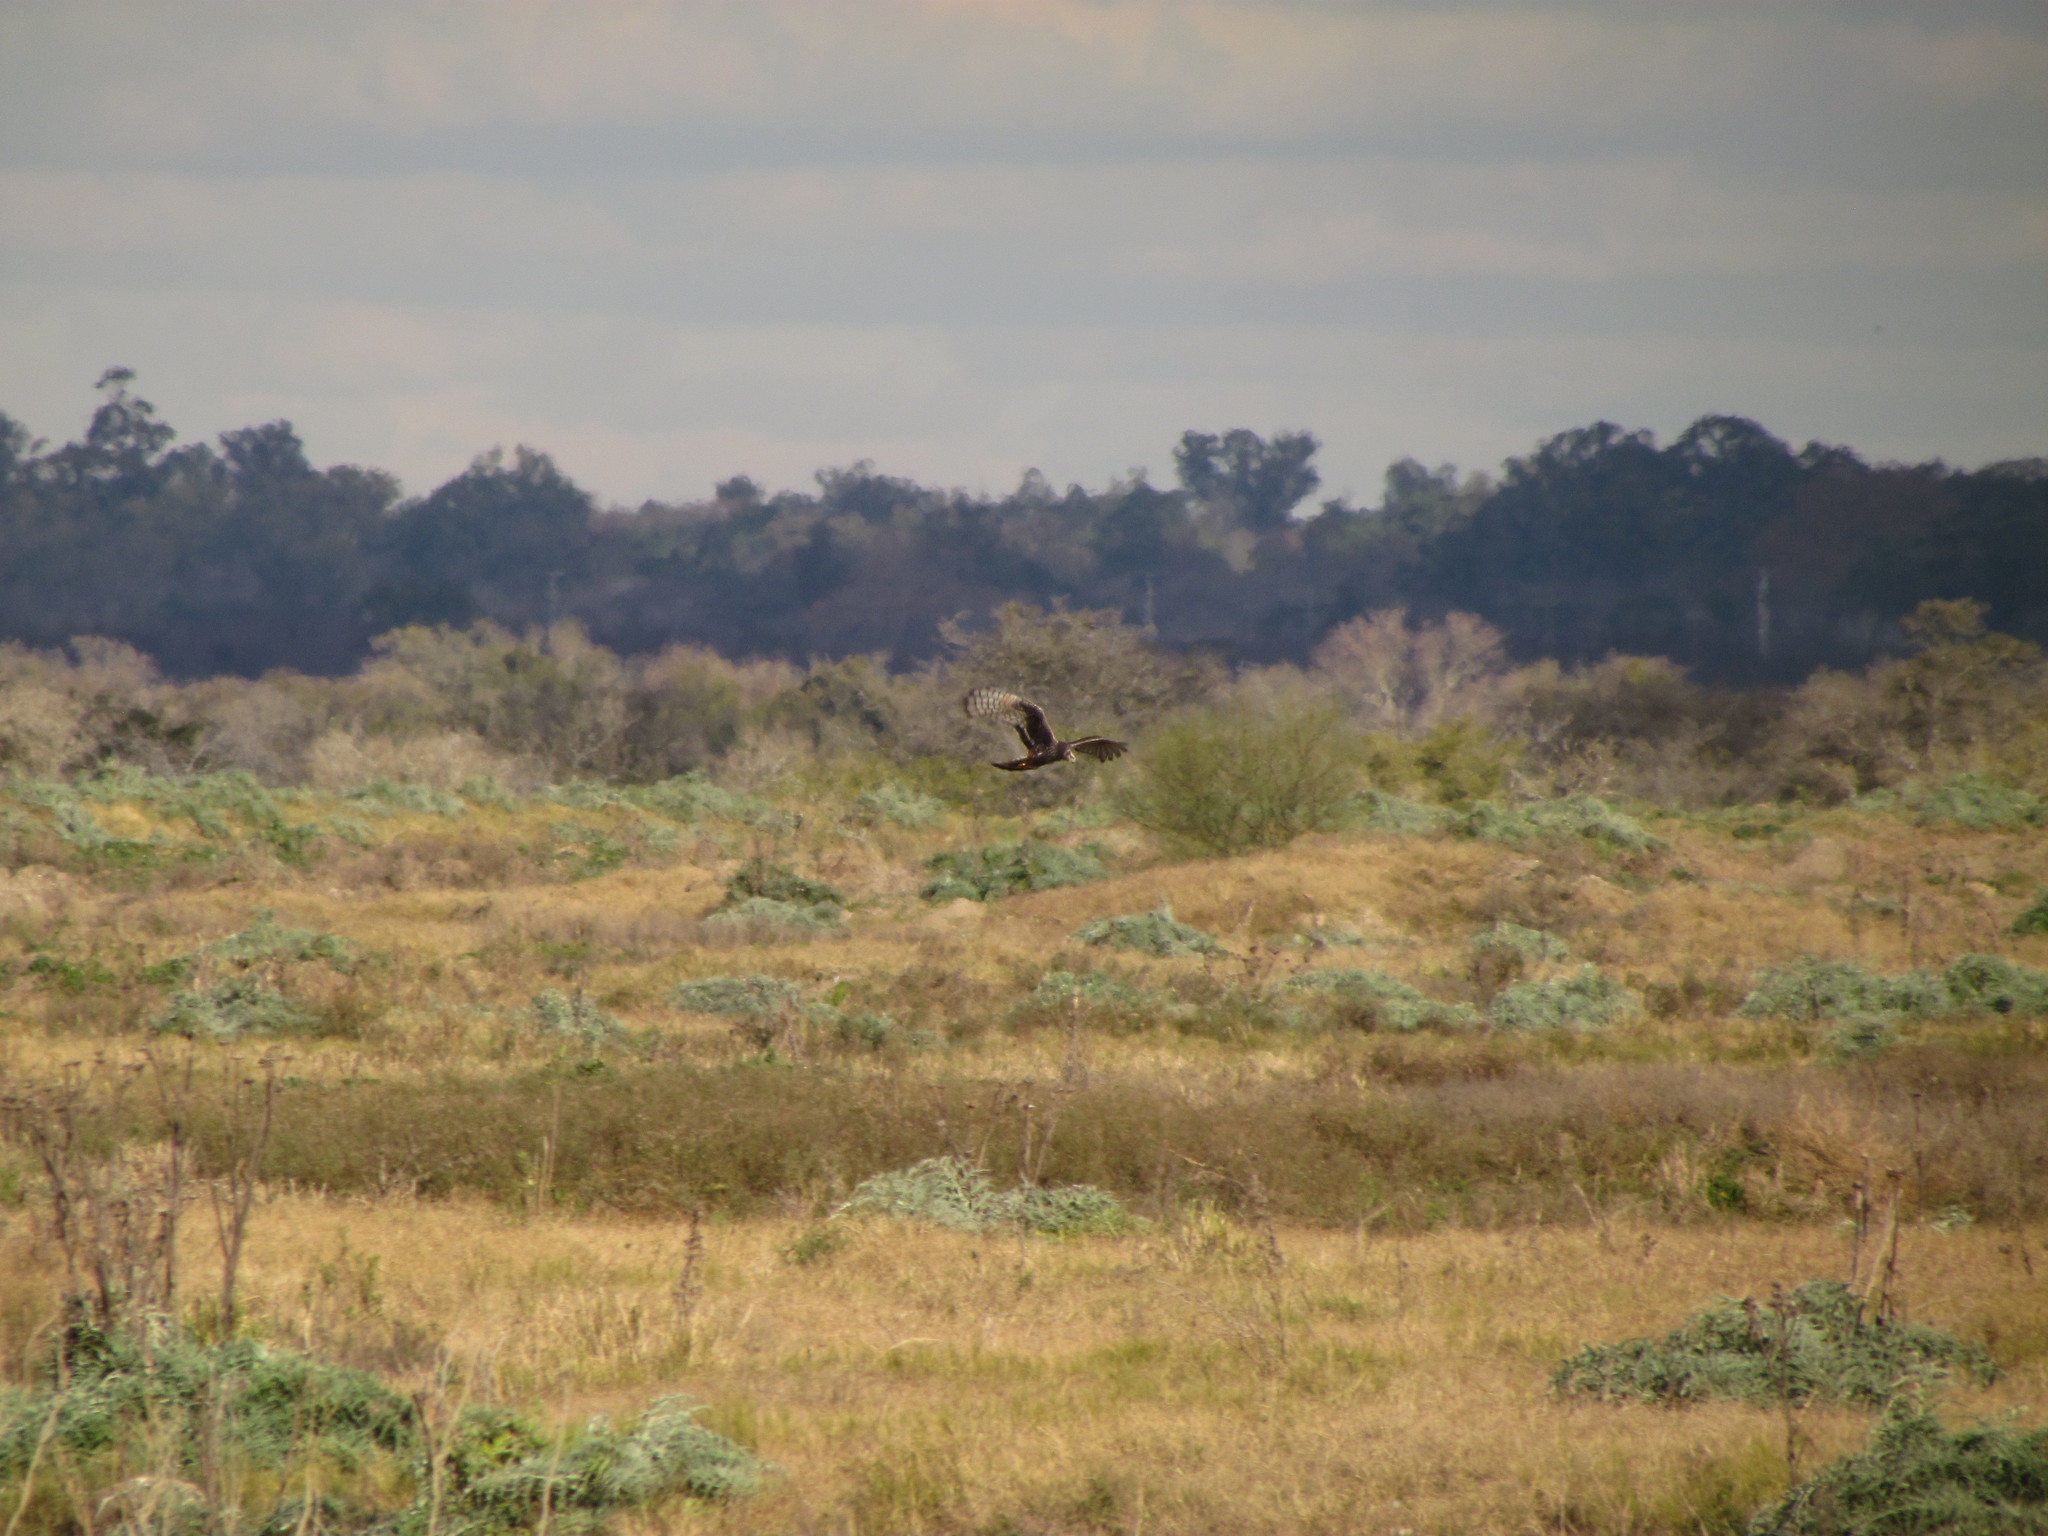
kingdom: Animalia
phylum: Chordata
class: Aves
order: Accipitriformes
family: Accipitridae
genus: Circus
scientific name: Circus buffoni
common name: Long-winged harrier
